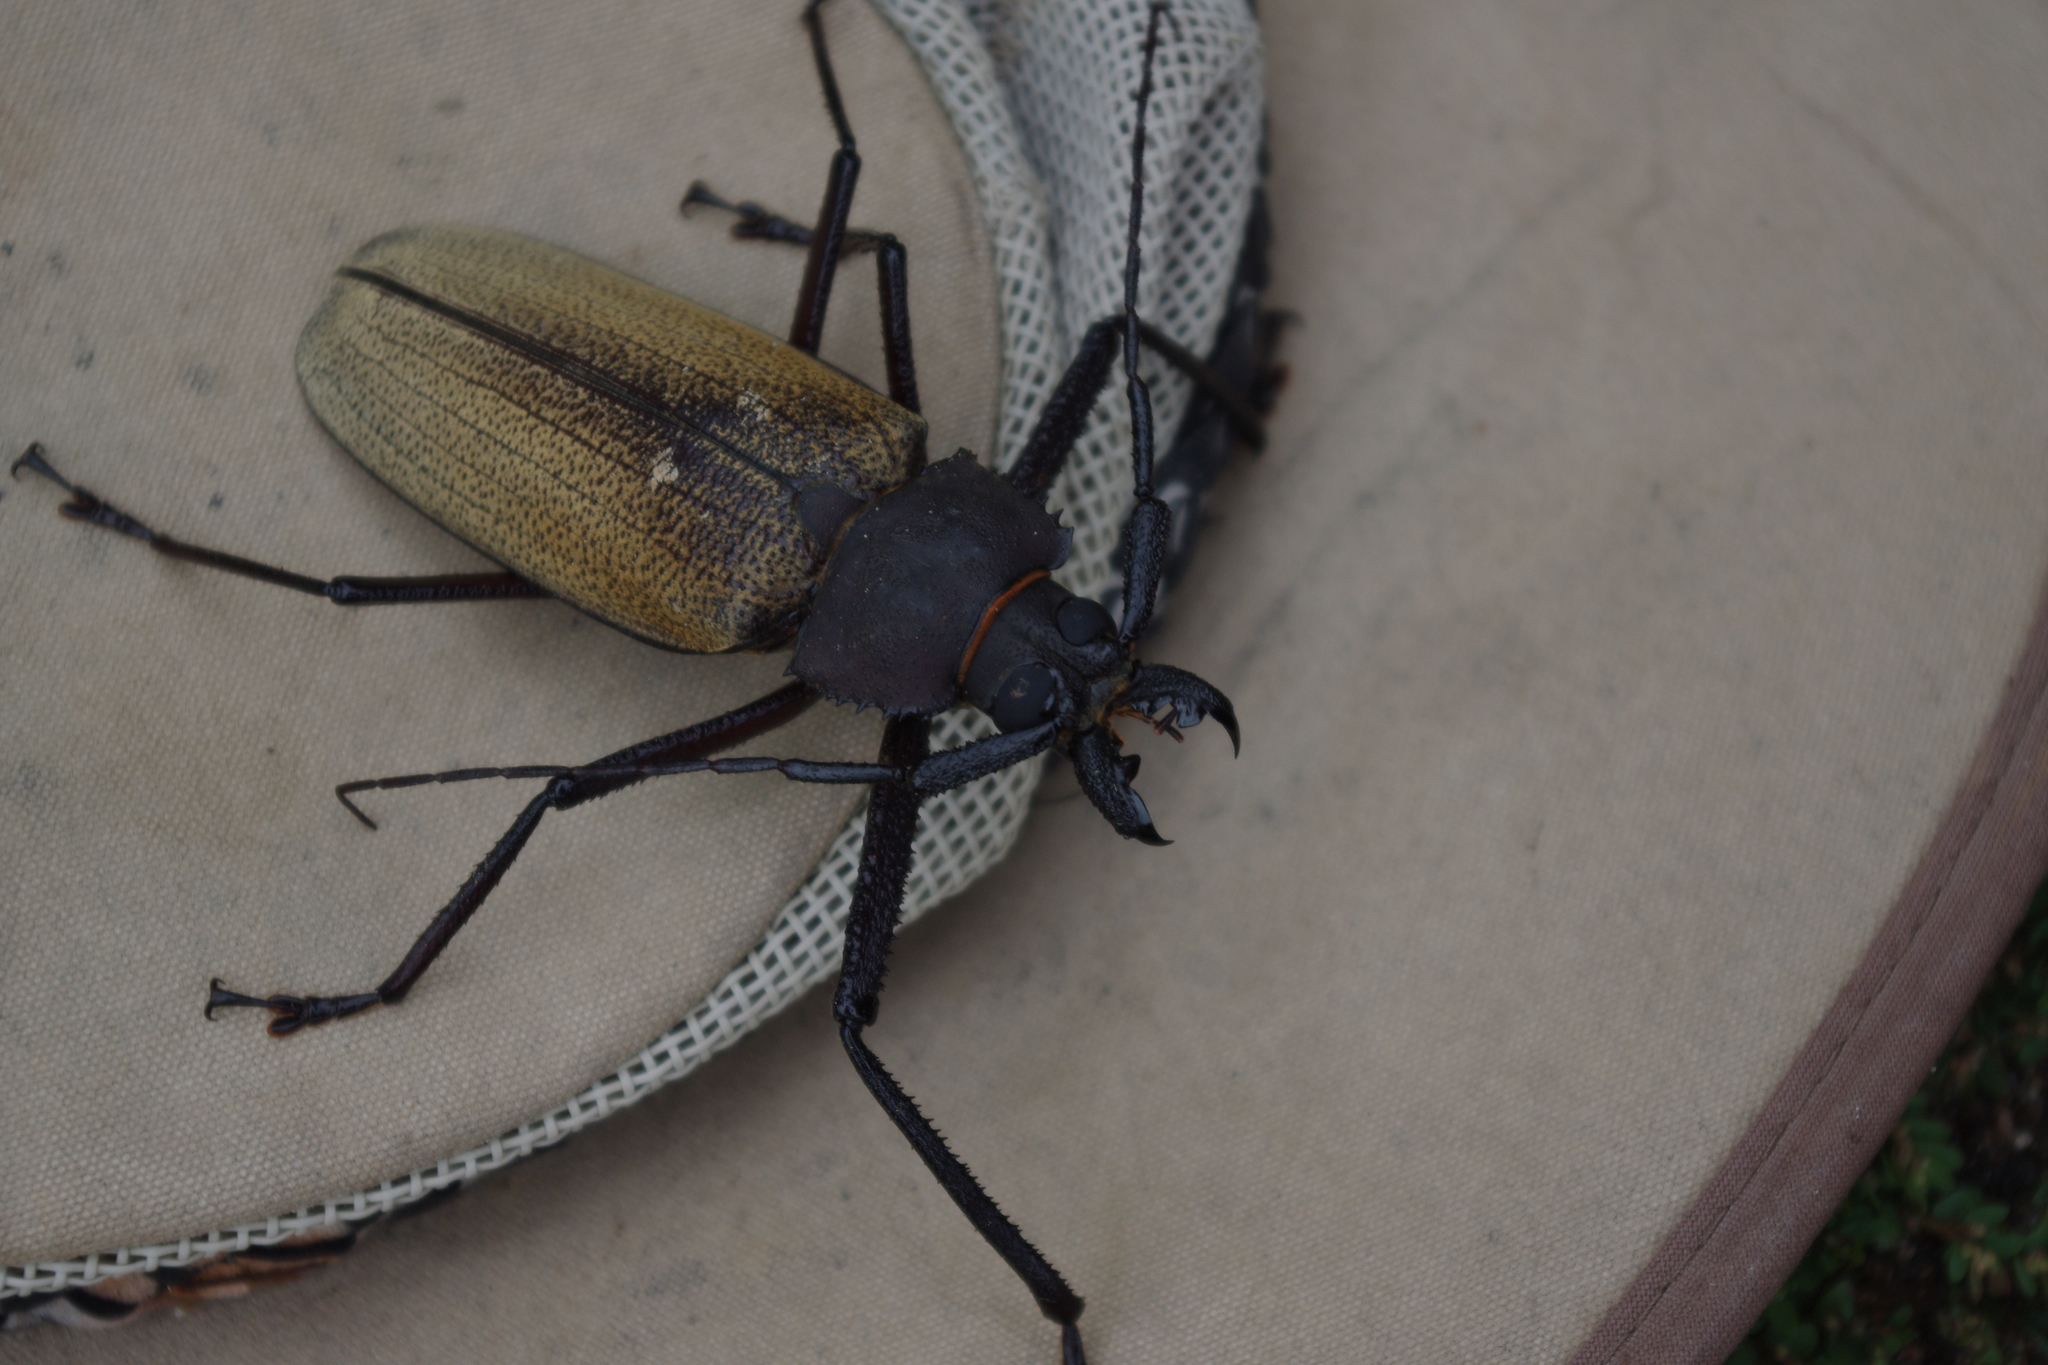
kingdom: Animalia
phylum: Arthropoda
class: Insecta
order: Coleoptera
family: Cerambycidae
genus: Xixuthrus
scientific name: Xixuthrus granulipennis
